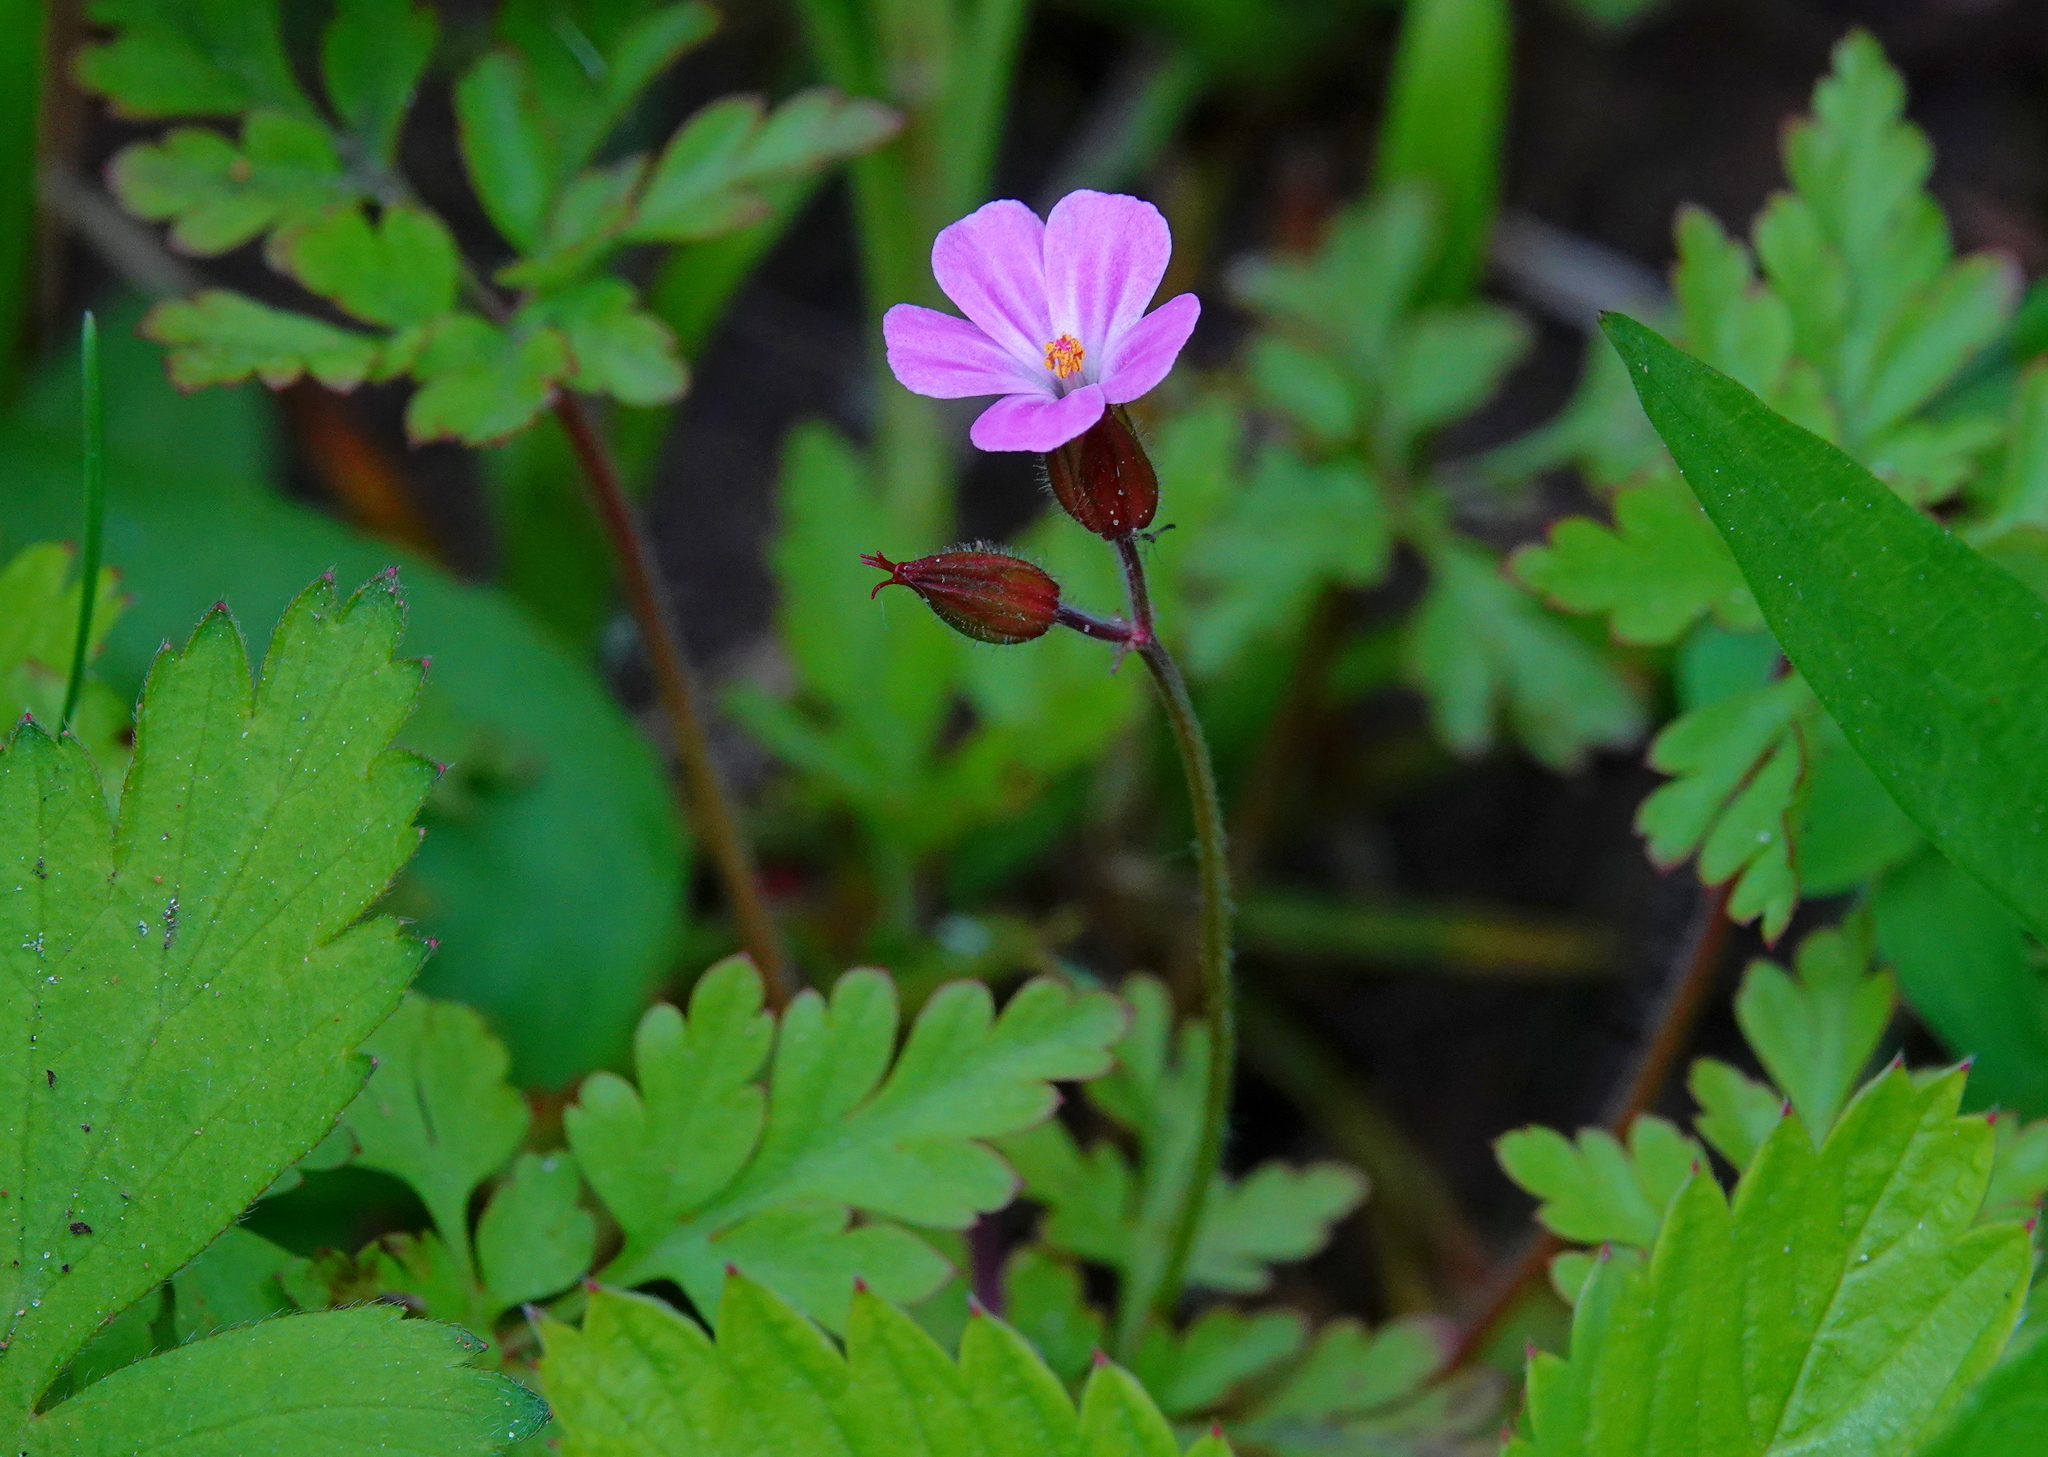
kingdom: Plantae
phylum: Tracheophyta
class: Magnoliopsida
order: Geraniales
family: Geraniaceae
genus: Geranium
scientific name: Geranium robertianum
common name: Herb-robert
